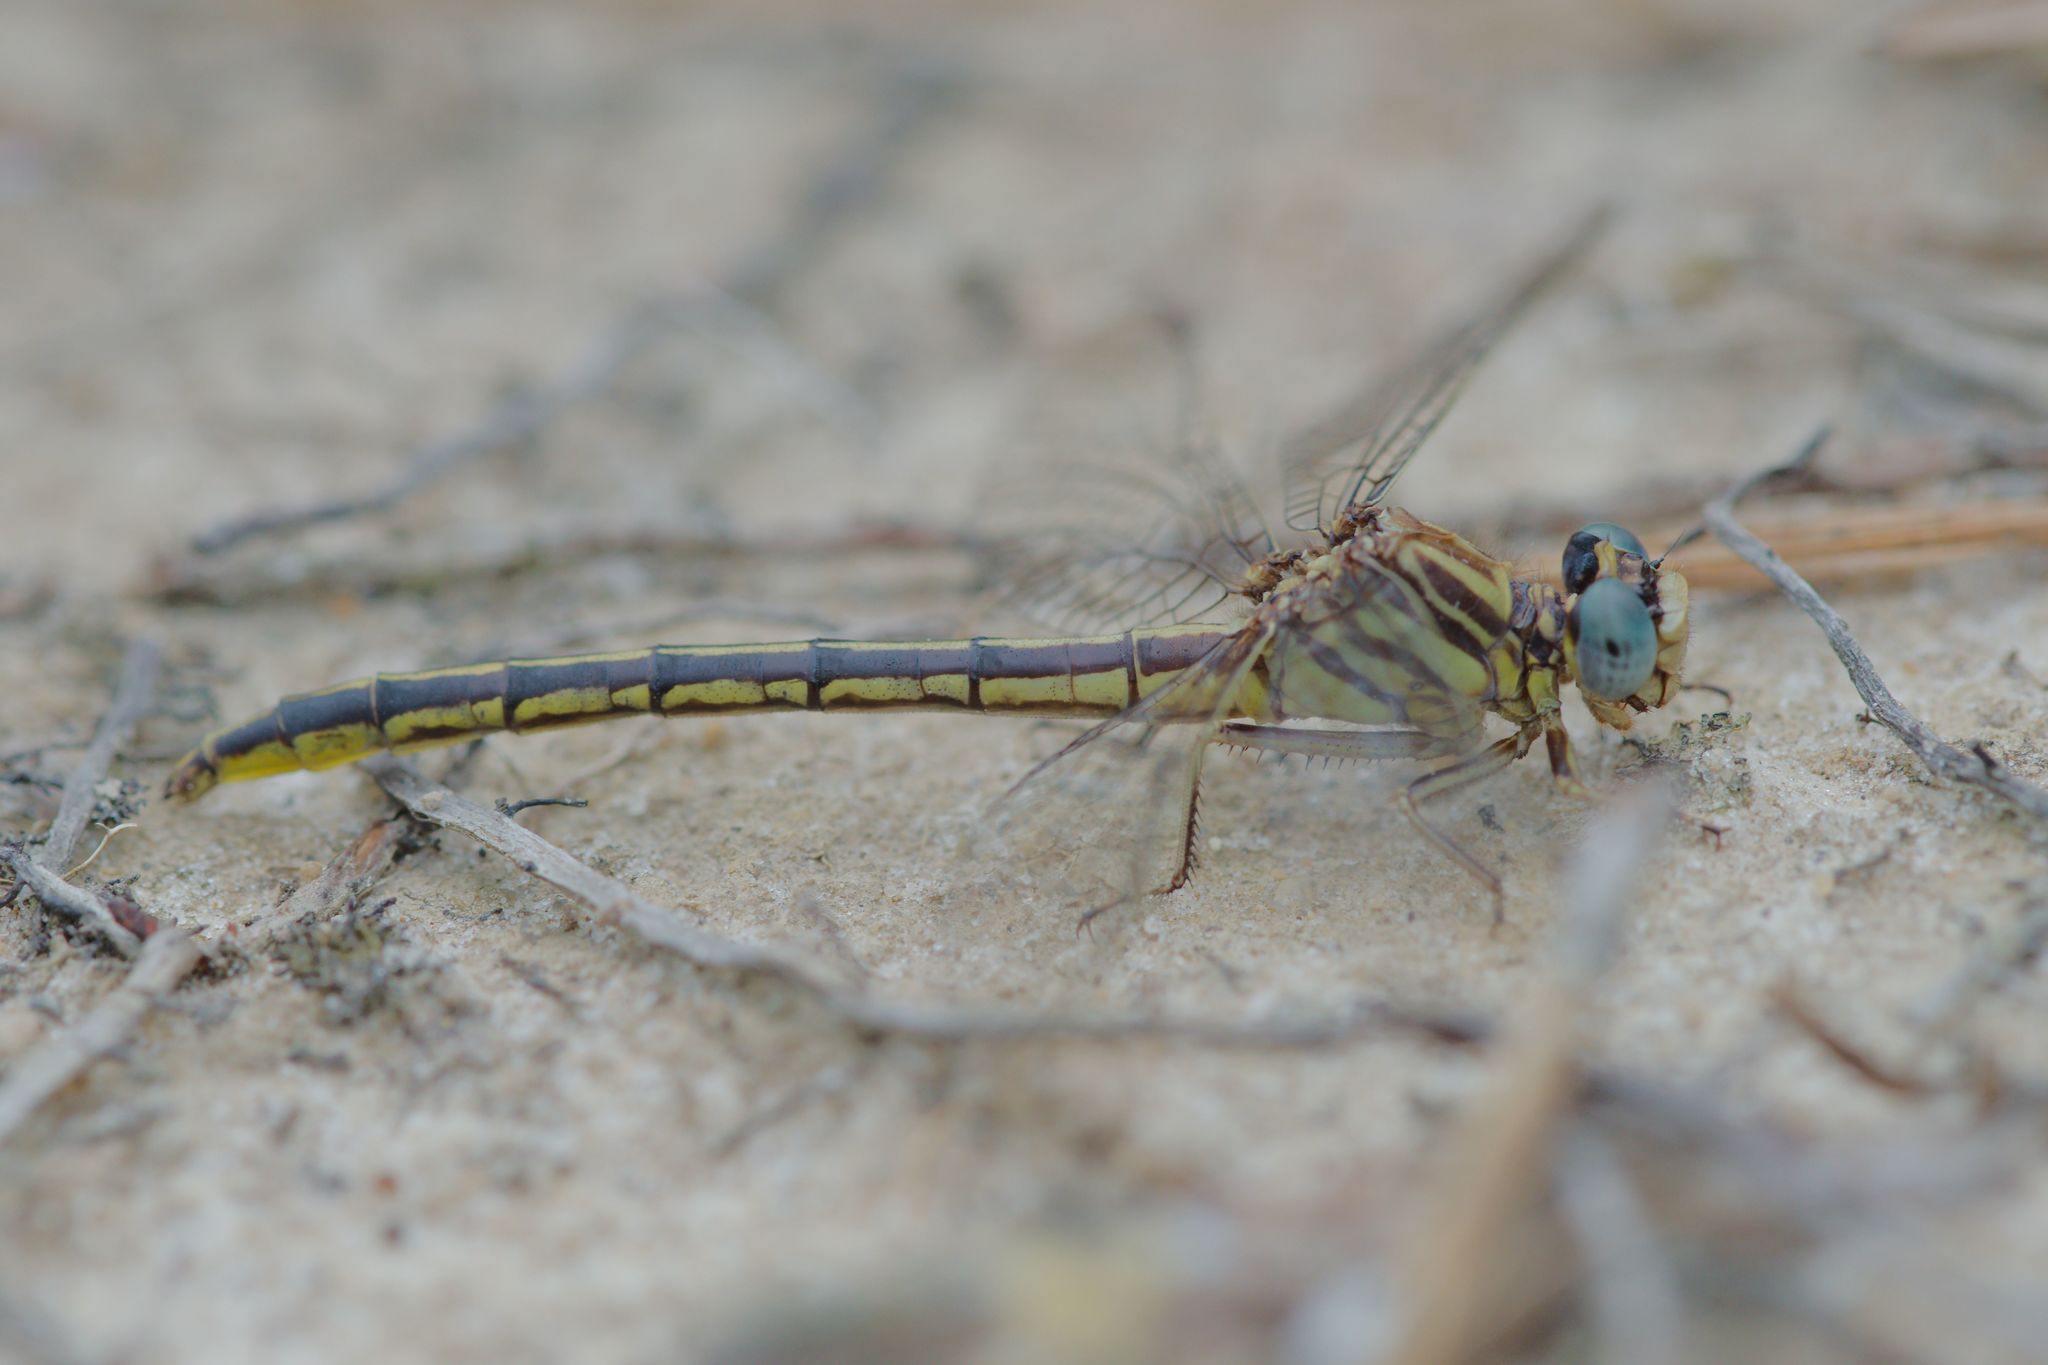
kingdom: Animalia
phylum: Arthropoda
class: Insecta
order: Odonata
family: Gomphidae
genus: Phanogomphus
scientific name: Phanogomphus hodgesi
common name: Hodges' clubtail
